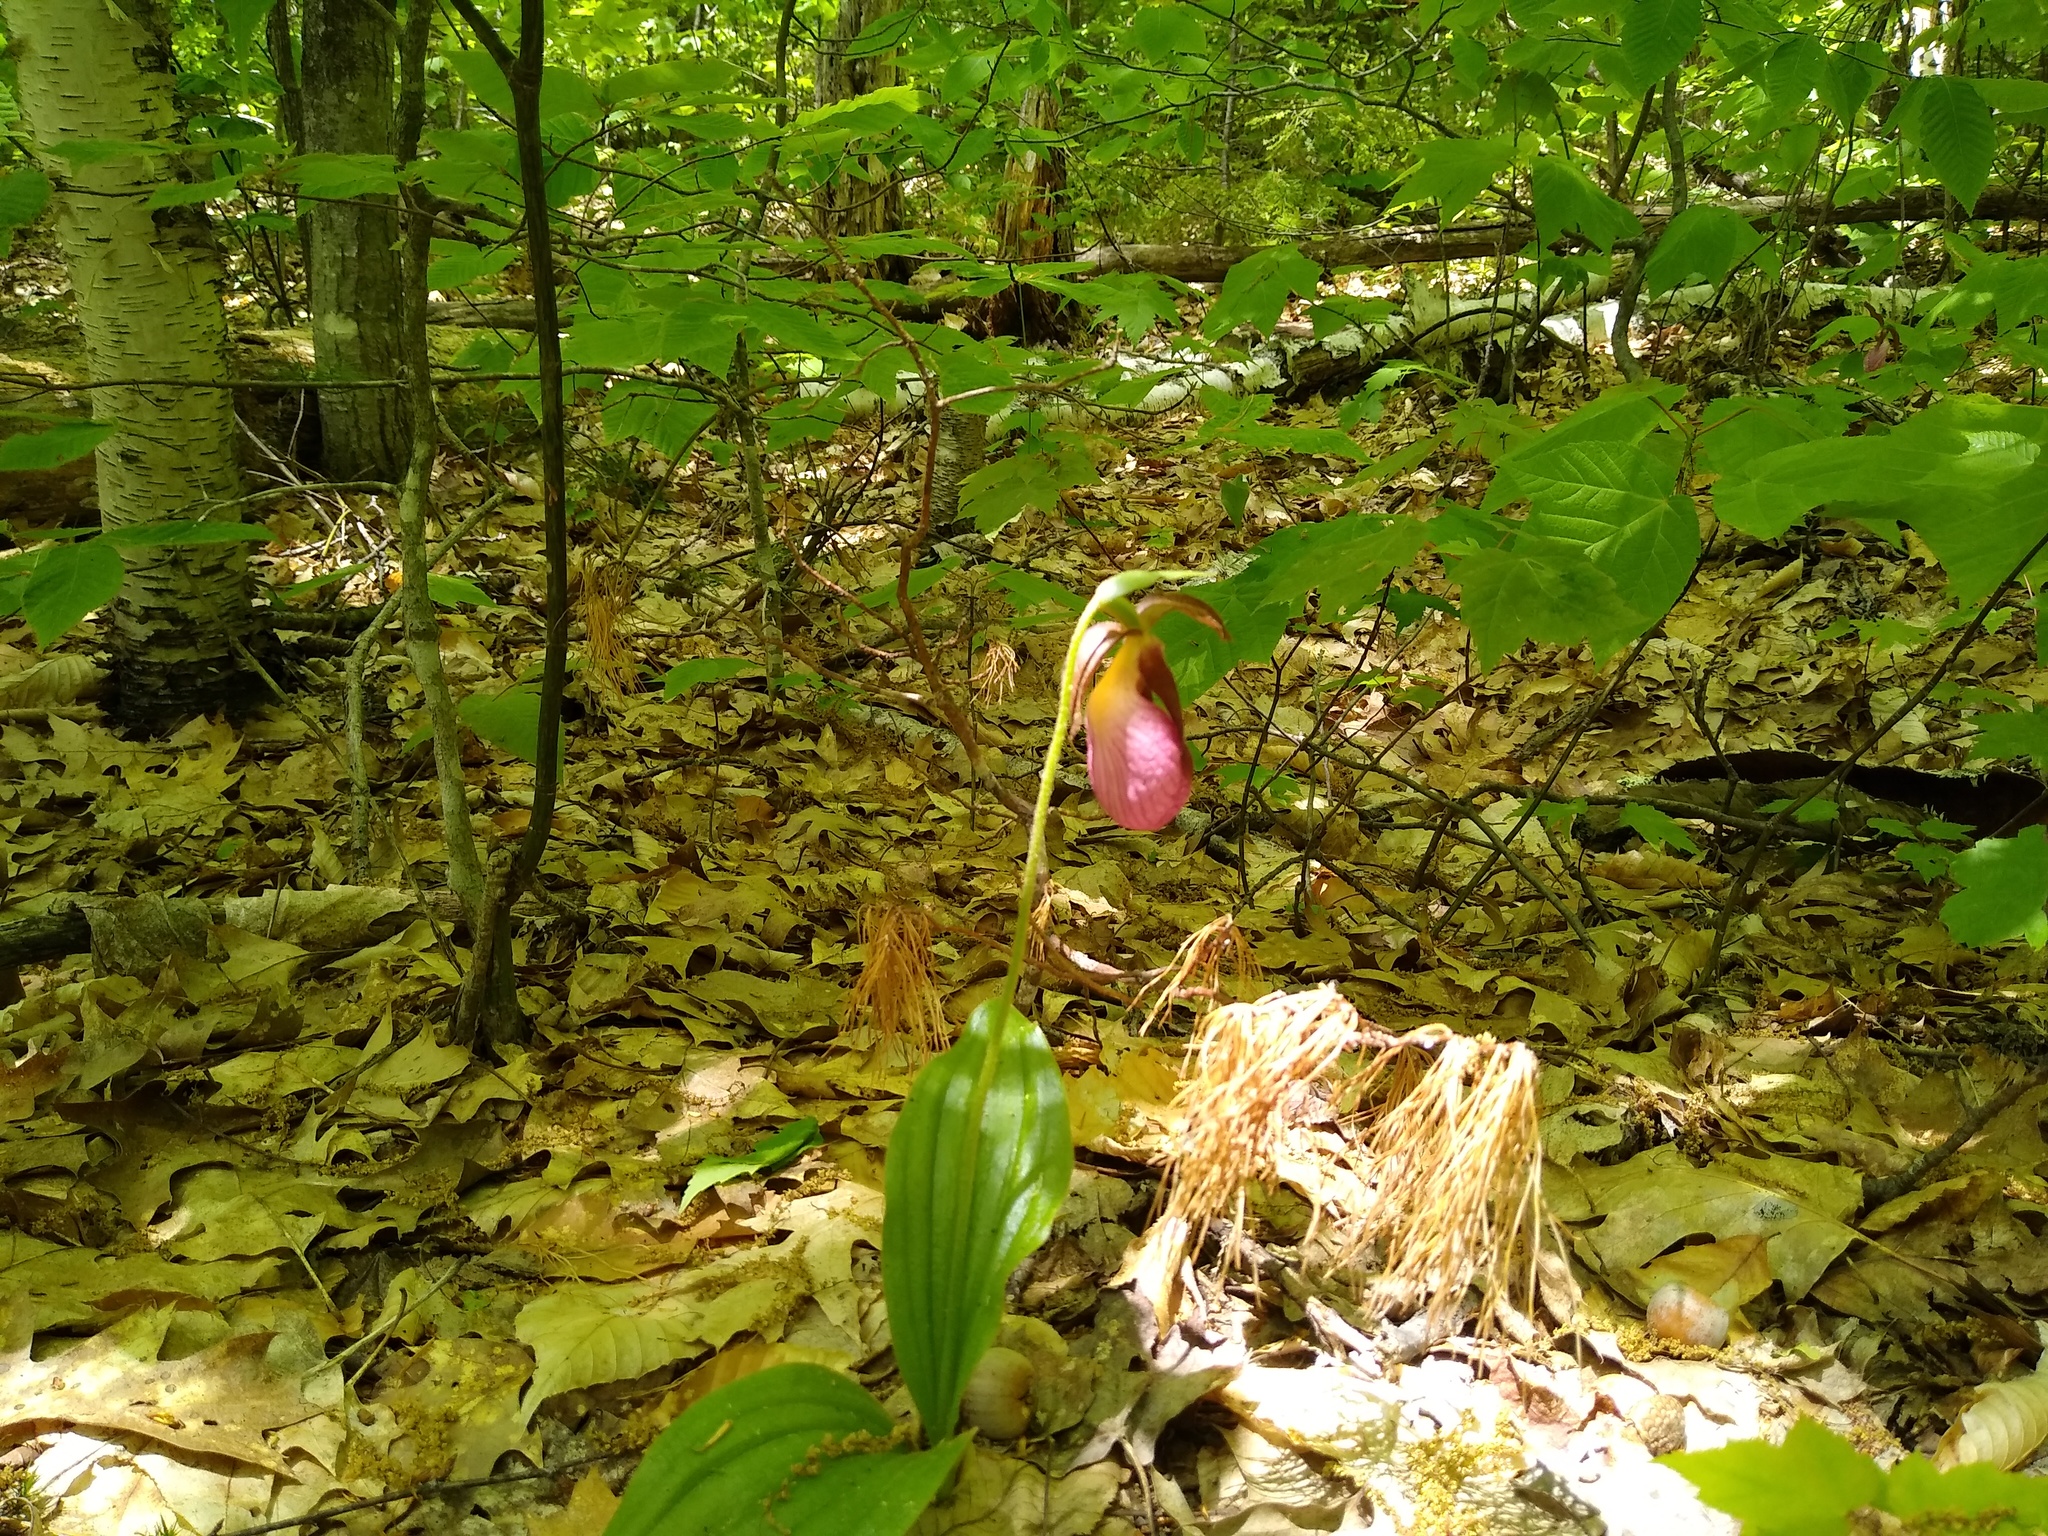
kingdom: Plantae
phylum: Tracheophyta
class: Liliopsida
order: Asparagales
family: Orchidaceae
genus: Cypripedium
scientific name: Cypripedium acaule
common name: Pink lady's-slipper
